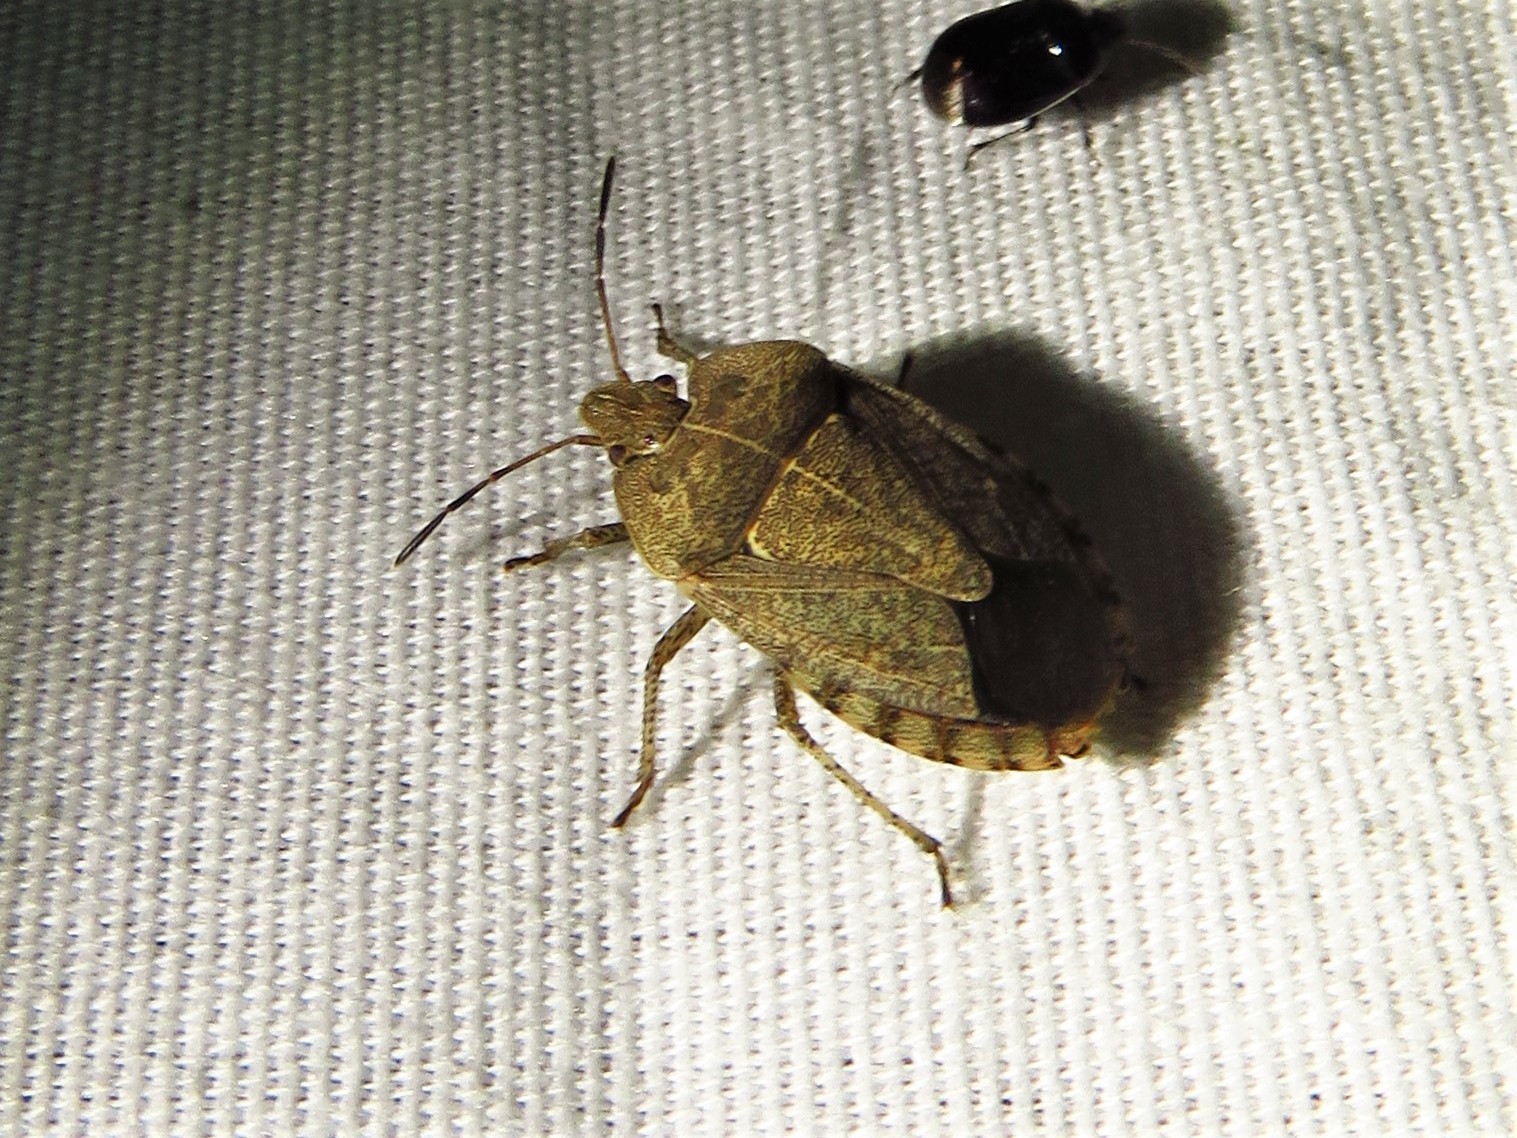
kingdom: Animalia
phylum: Arthropoda
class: Insecta
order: Hemiptera
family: Pentatomidae
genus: Menecles
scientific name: Menecles insertus
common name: Elf shoe stink bug
